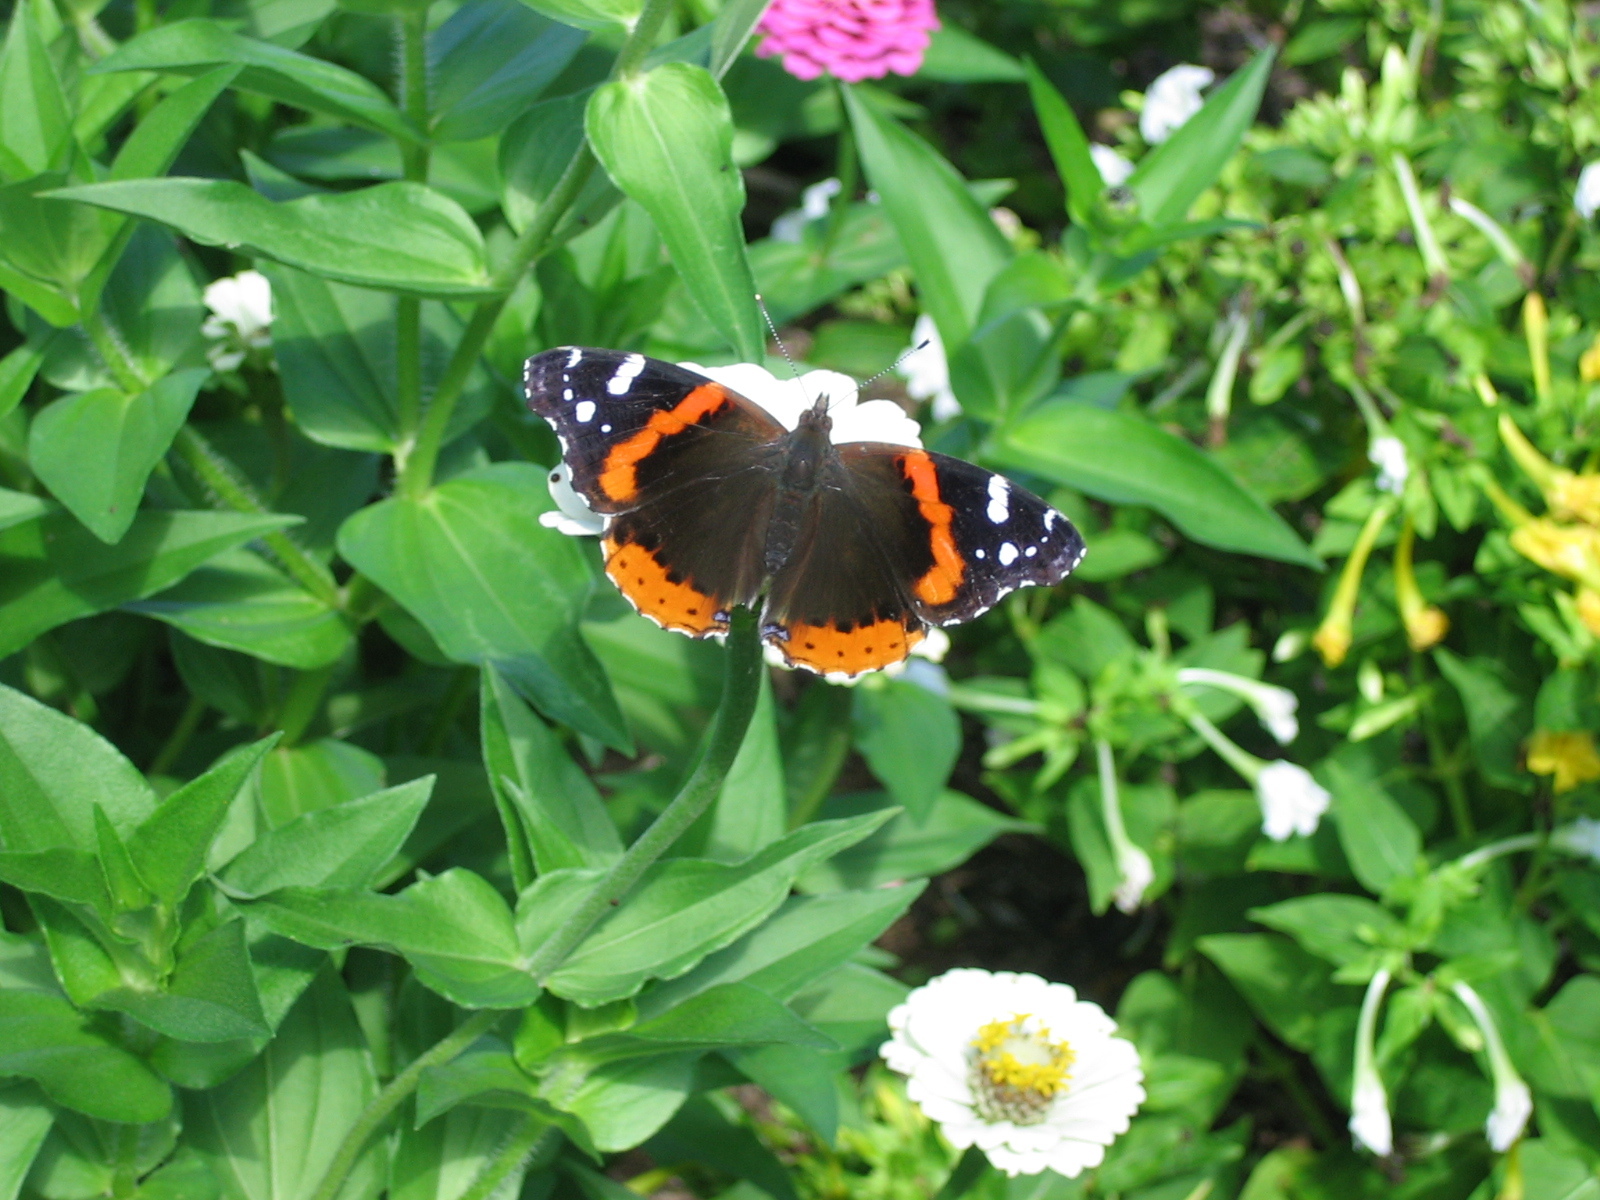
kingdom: Animalia
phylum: Arthropoda
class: Insecta
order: Lepidoptera
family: Nymphalidae
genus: Vanessa
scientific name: Vanessa atalanta
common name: Red admiral
